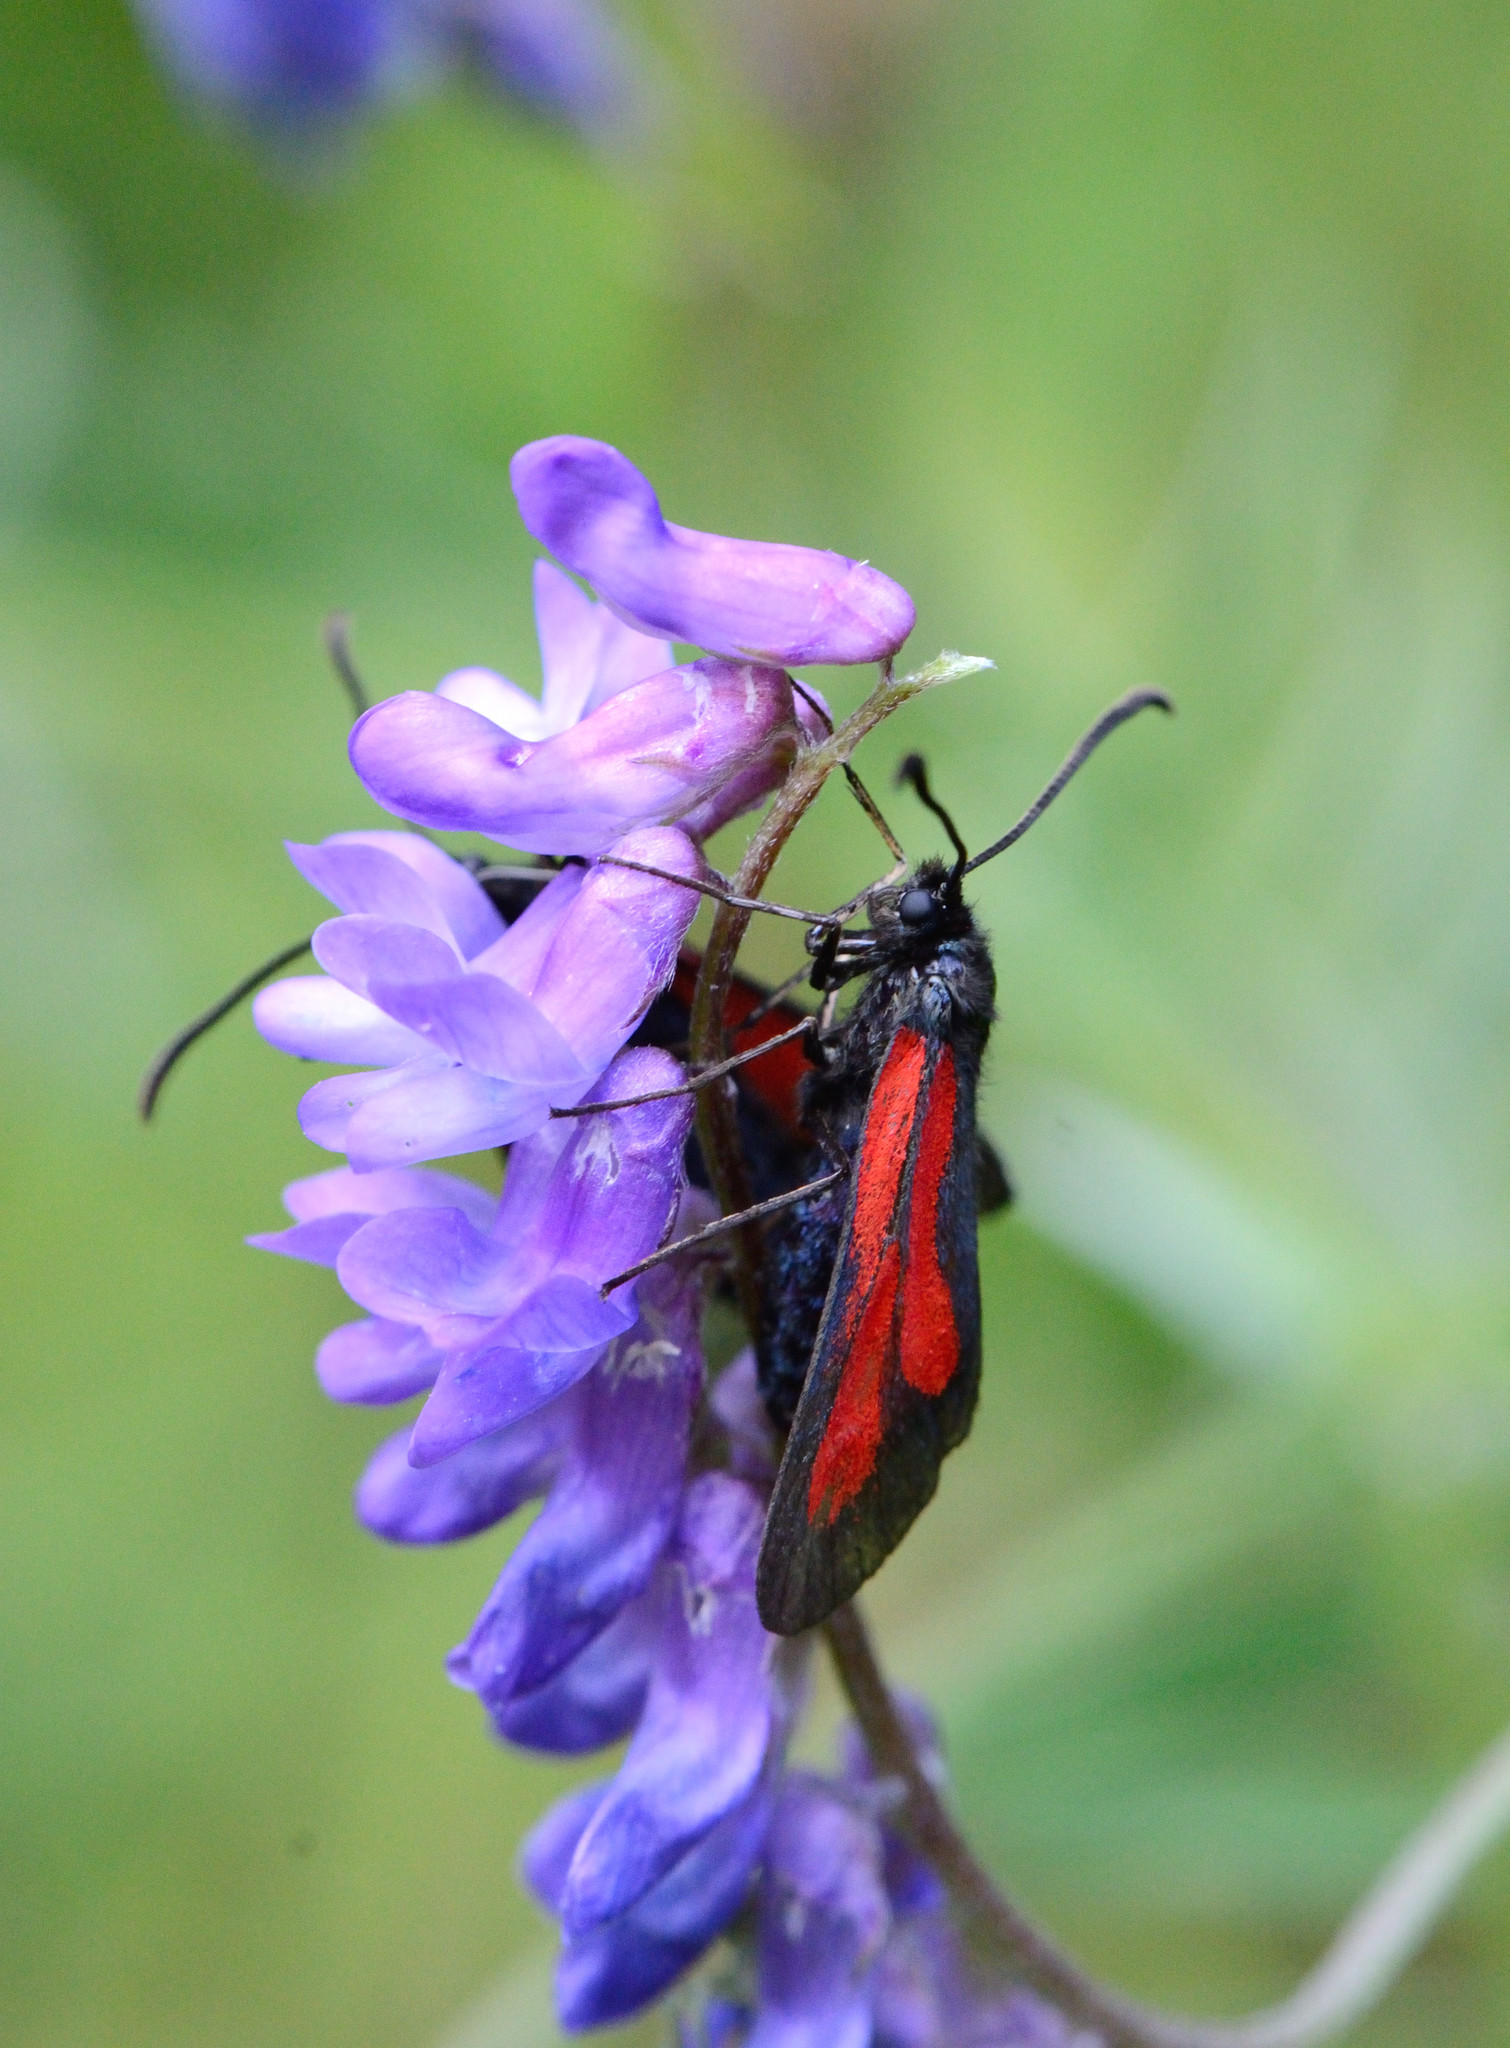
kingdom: Animalia
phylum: Arthropoda
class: Insecta
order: Lepidoptera
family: Zygaenidae
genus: Zygaena
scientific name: Zygaena osterodensis
